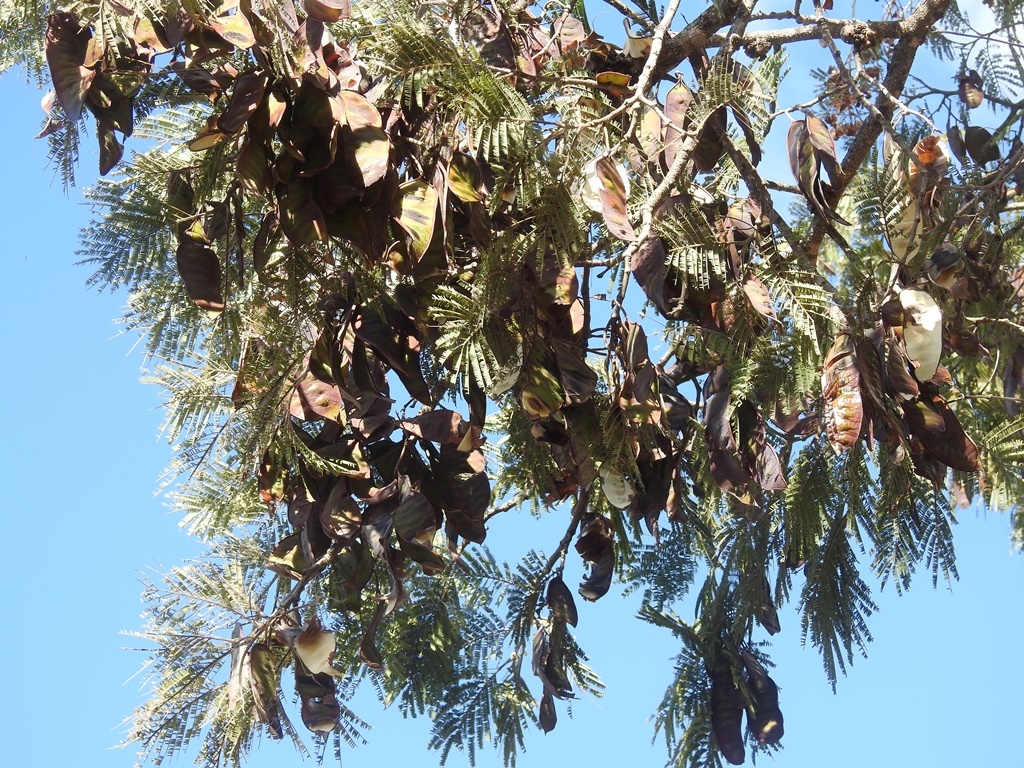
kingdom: Plantae
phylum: Tracheophyta
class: Magnoliopsida
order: Fabales
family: Fabaceae
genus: Lysiloma
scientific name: Lysiloma auritum
